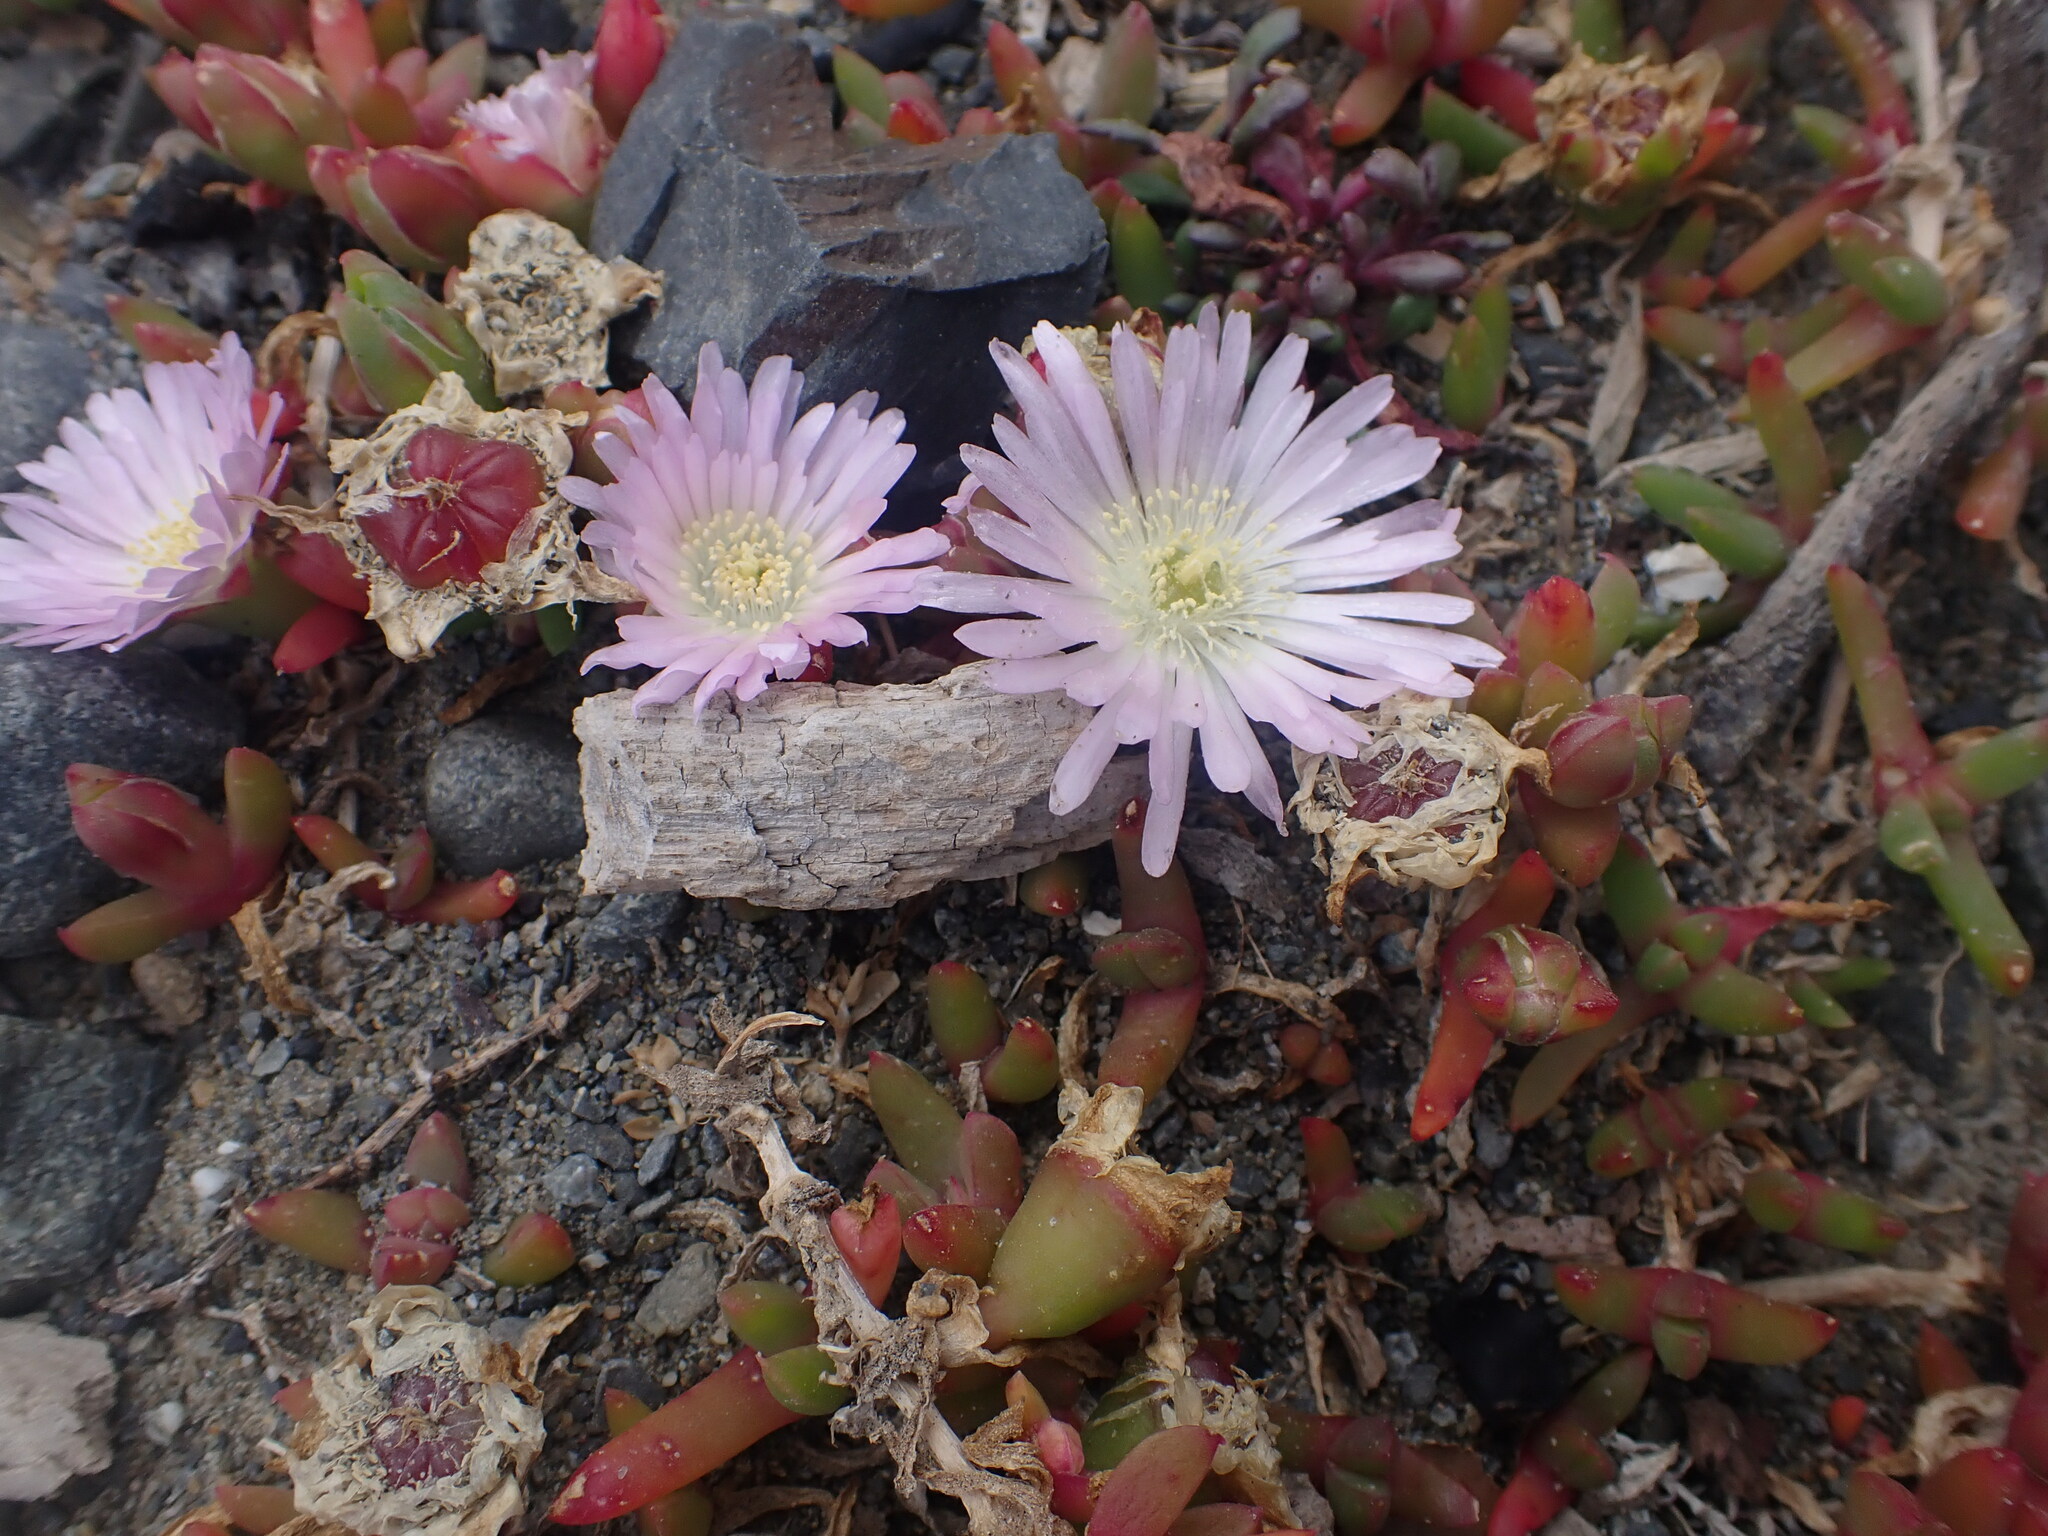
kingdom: Plantae
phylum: Tracheophyta
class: Magnoliopsida
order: Caryophyllales
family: Aizoaceae
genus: Disphyma
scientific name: Disphyma australe
